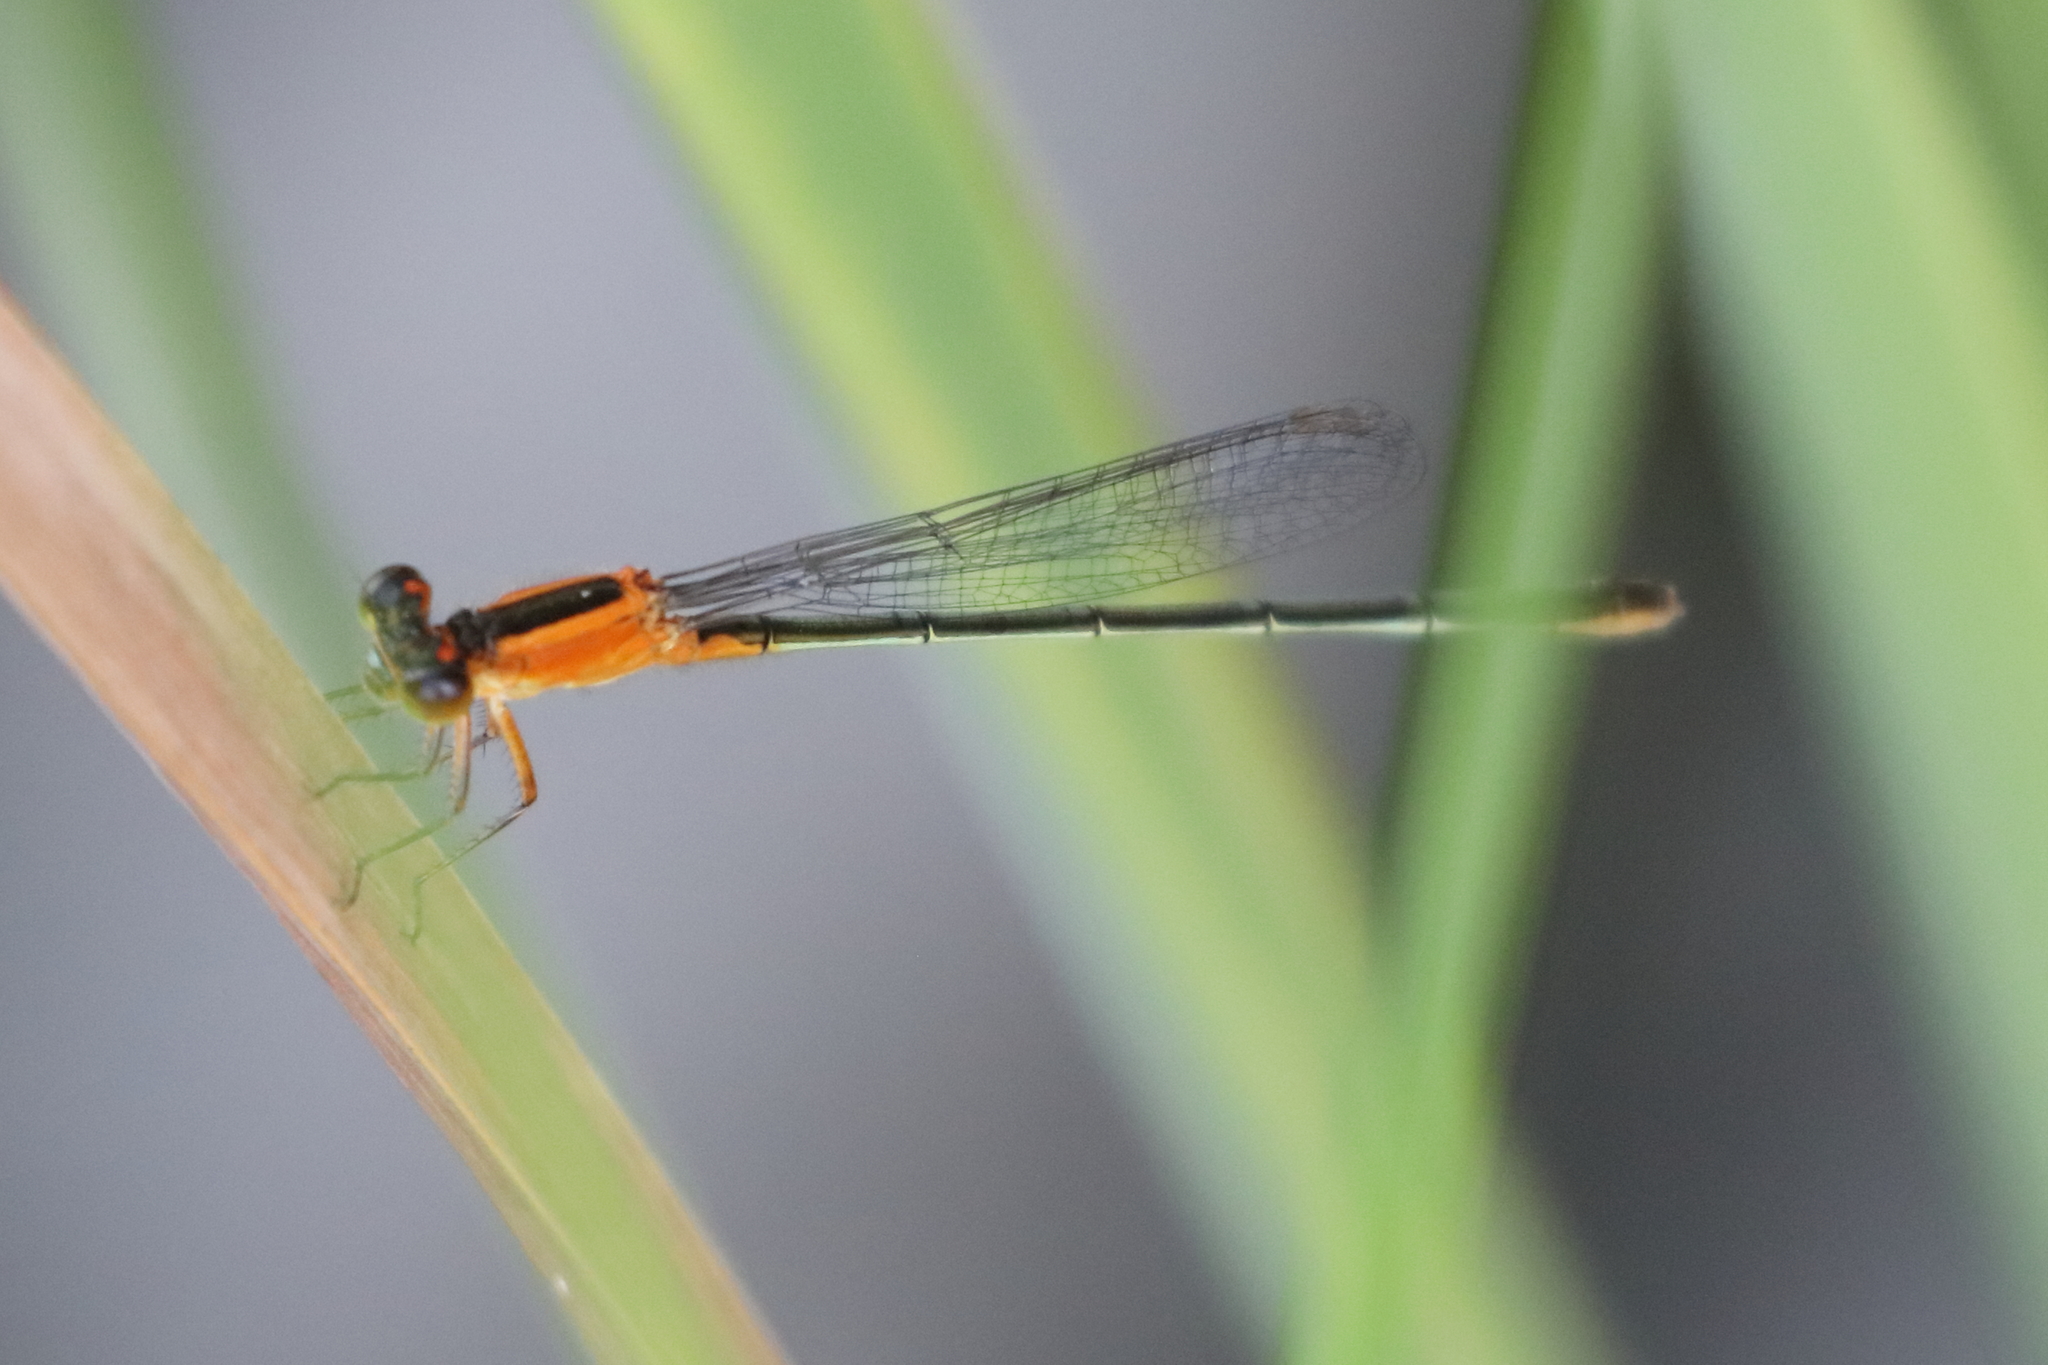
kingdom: Animalia
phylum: Arthropoda
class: Insecta
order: Odonata
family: Coenagrionidae
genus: Ischnura
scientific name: Ischnura ramburii
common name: Rambur's forktail
